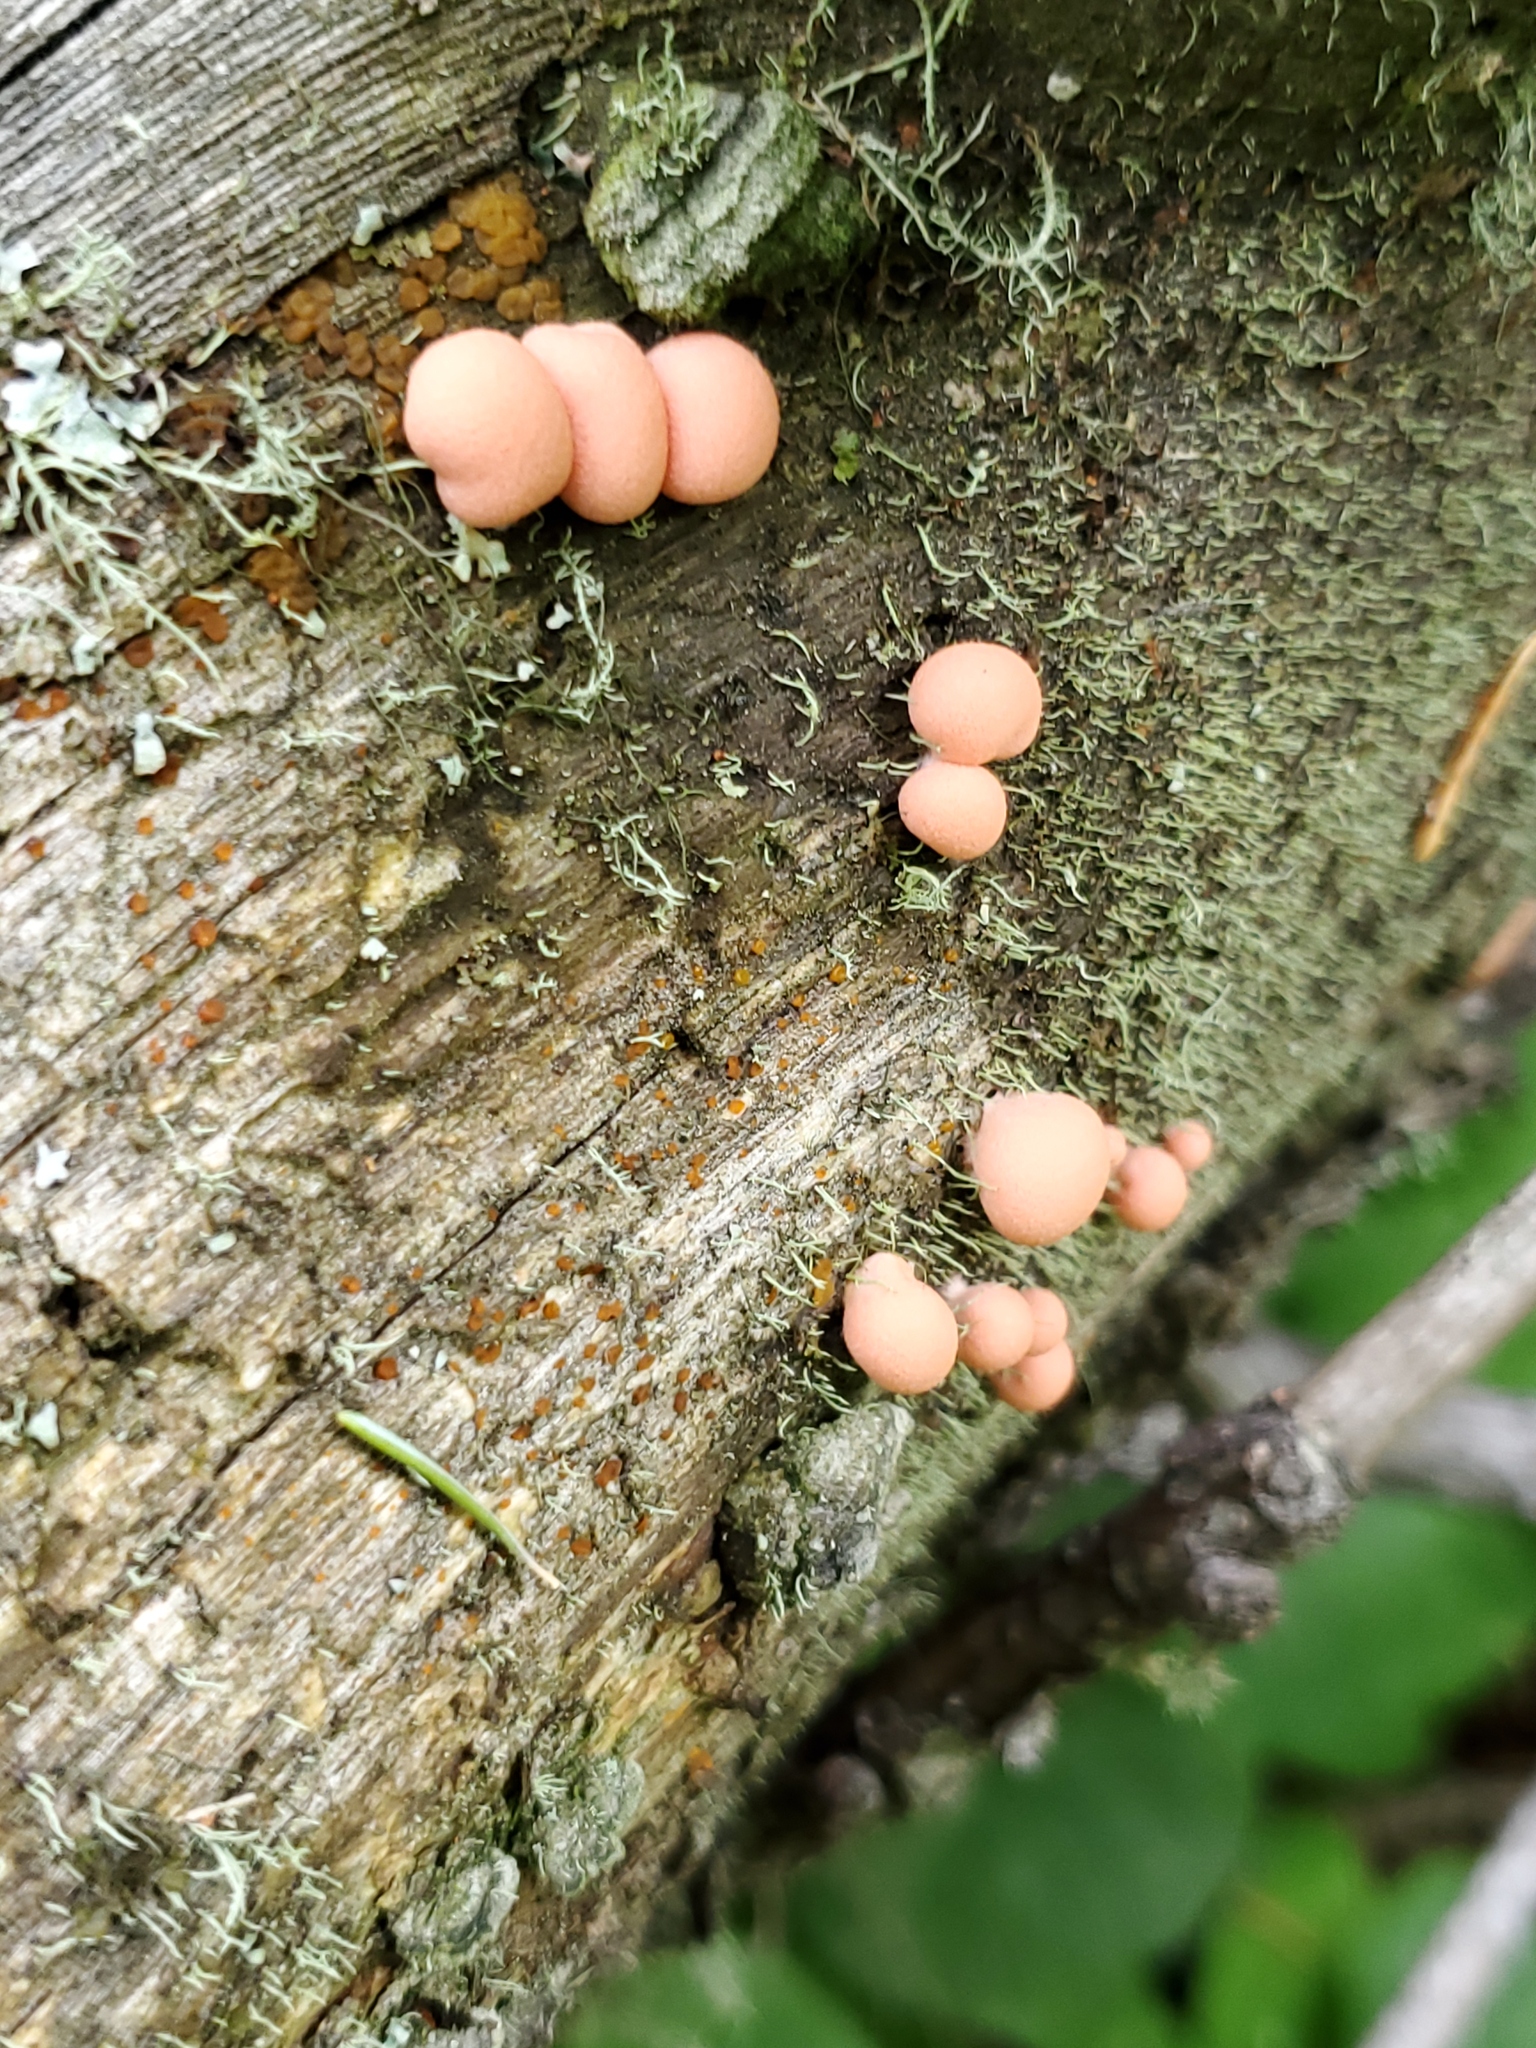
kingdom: Protozoa
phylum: Mycetozoa
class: Myxomycetes
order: Cribrariales
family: Tubiferaceae
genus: Lycogala
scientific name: Lycogala epidendrum
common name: Wolf's milk
